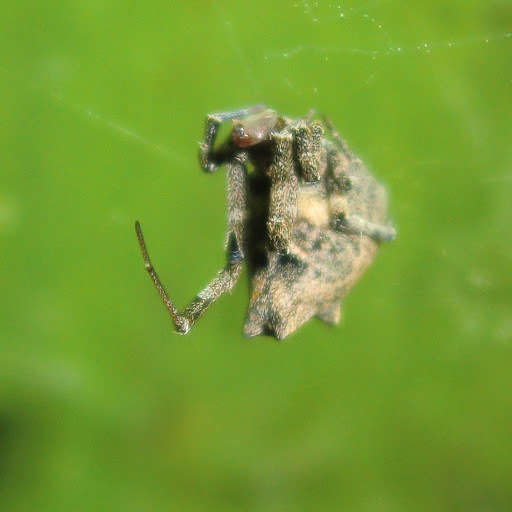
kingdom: Animalia
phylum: Arthropoda
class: Arachnida
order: Araneae
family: Uloboridae
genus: Philoponella
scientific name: Philoponella congregabilis
